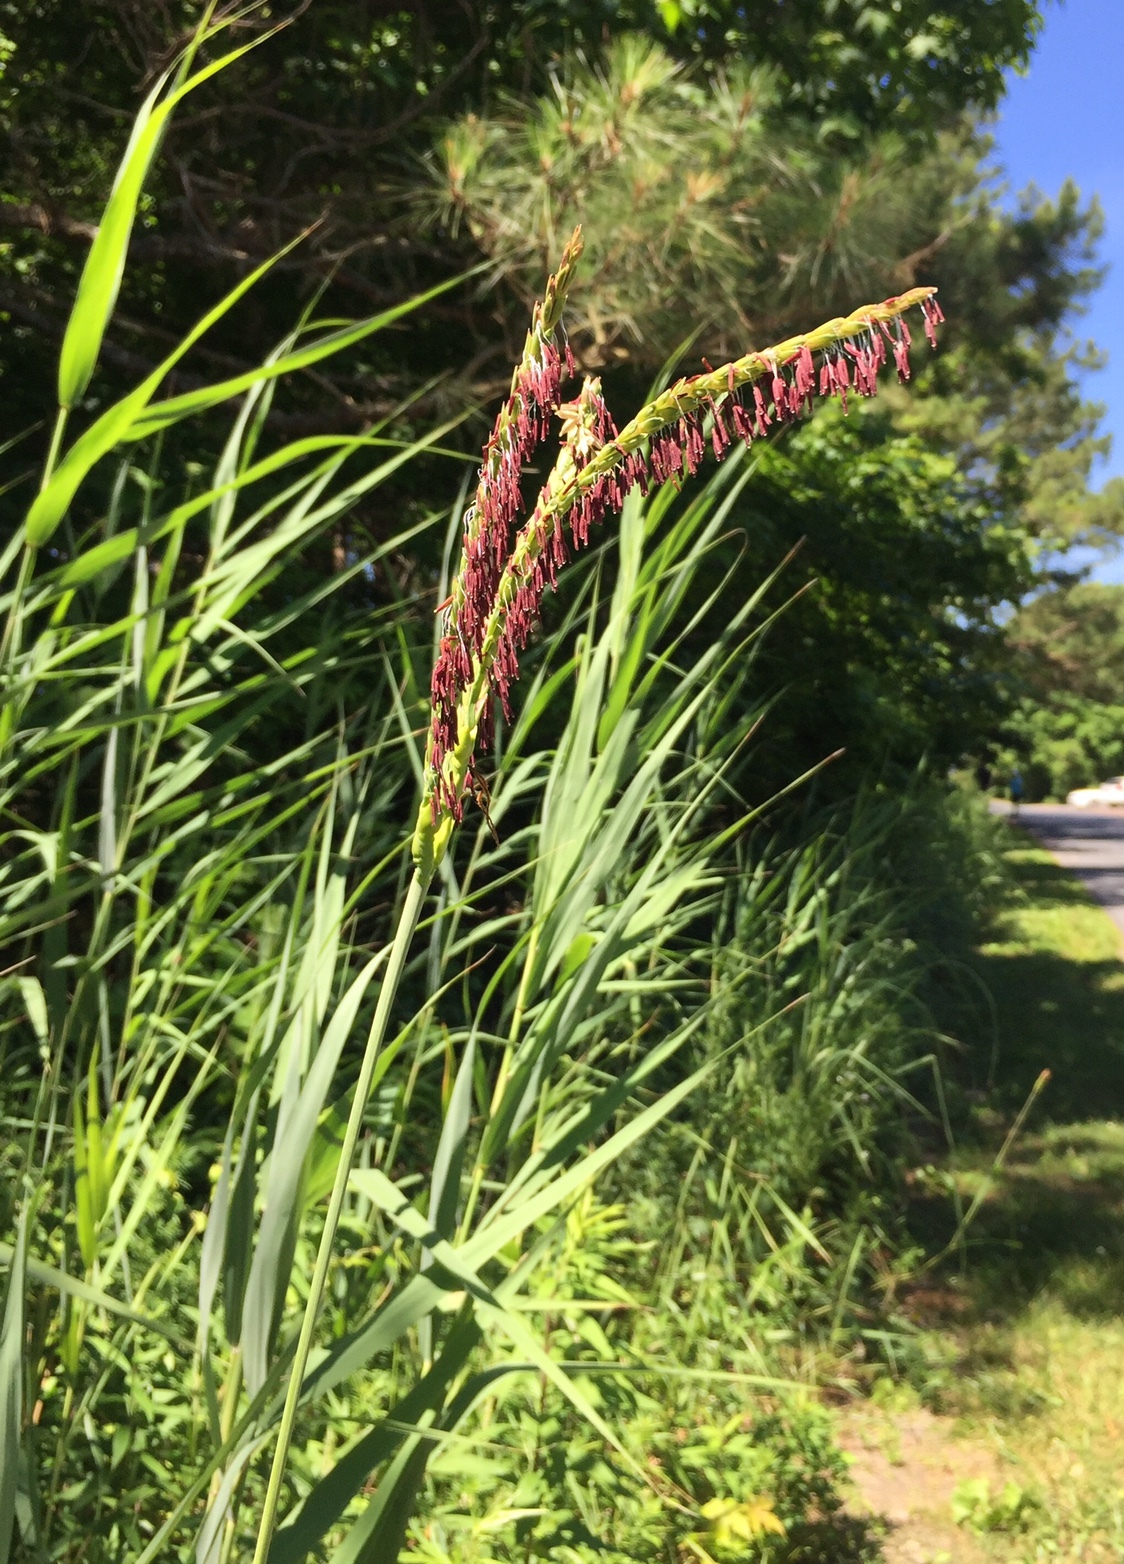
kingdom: Plantae
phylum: Tracheophyta
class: Liliopsida
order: Poales
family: Poaceae
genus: Tripsacum
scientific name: Tripsacum dactyloides
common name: Buffalo-grass
